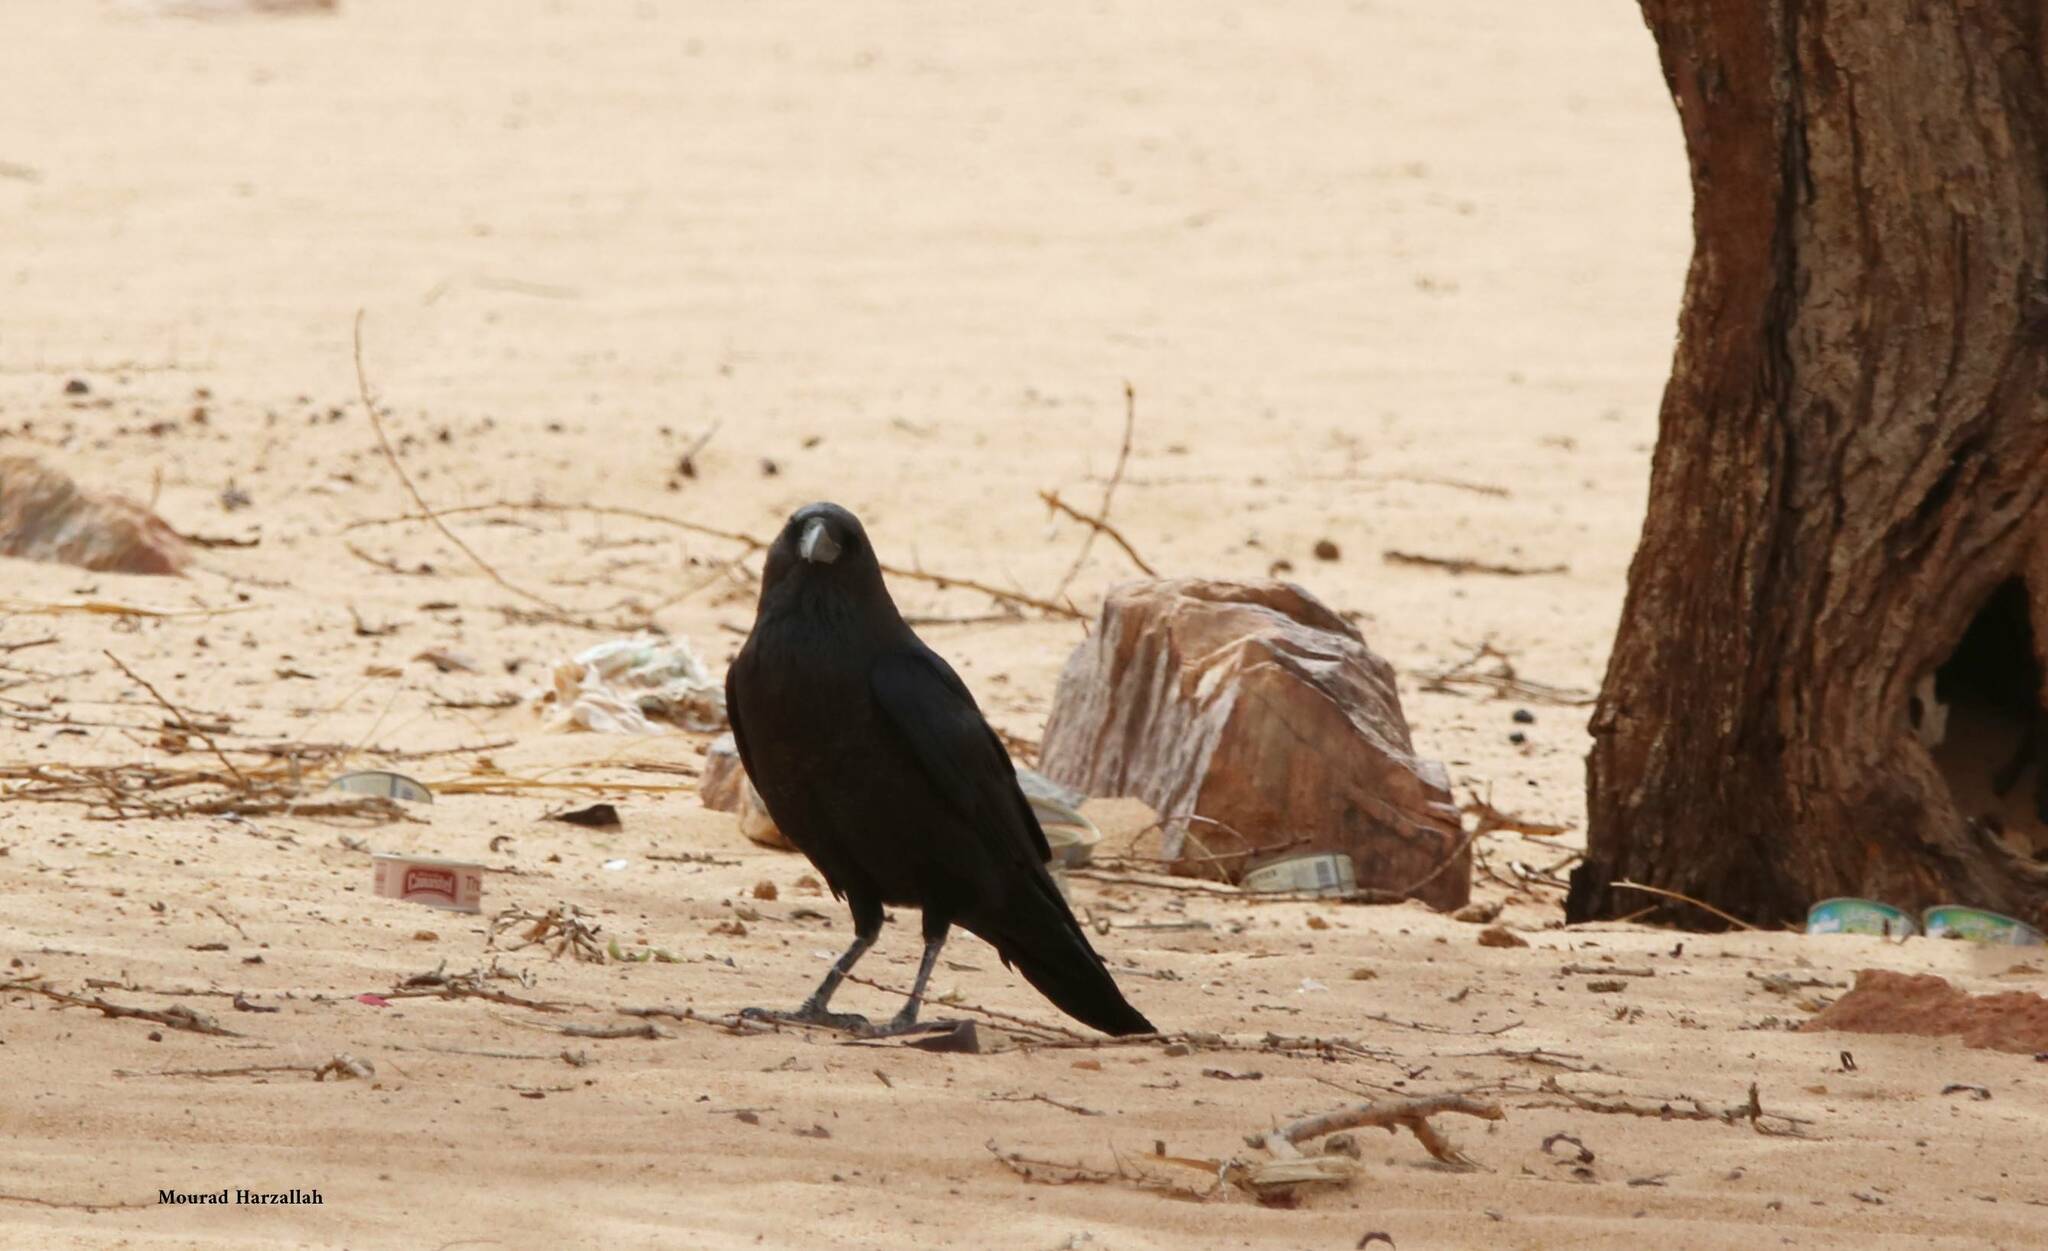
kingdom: Animalia
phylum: Chordata
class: Aves
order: Passeriformes
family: Corvidae
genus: Corvus
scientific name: Corvus ruficollis
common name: Brown-necked raven
